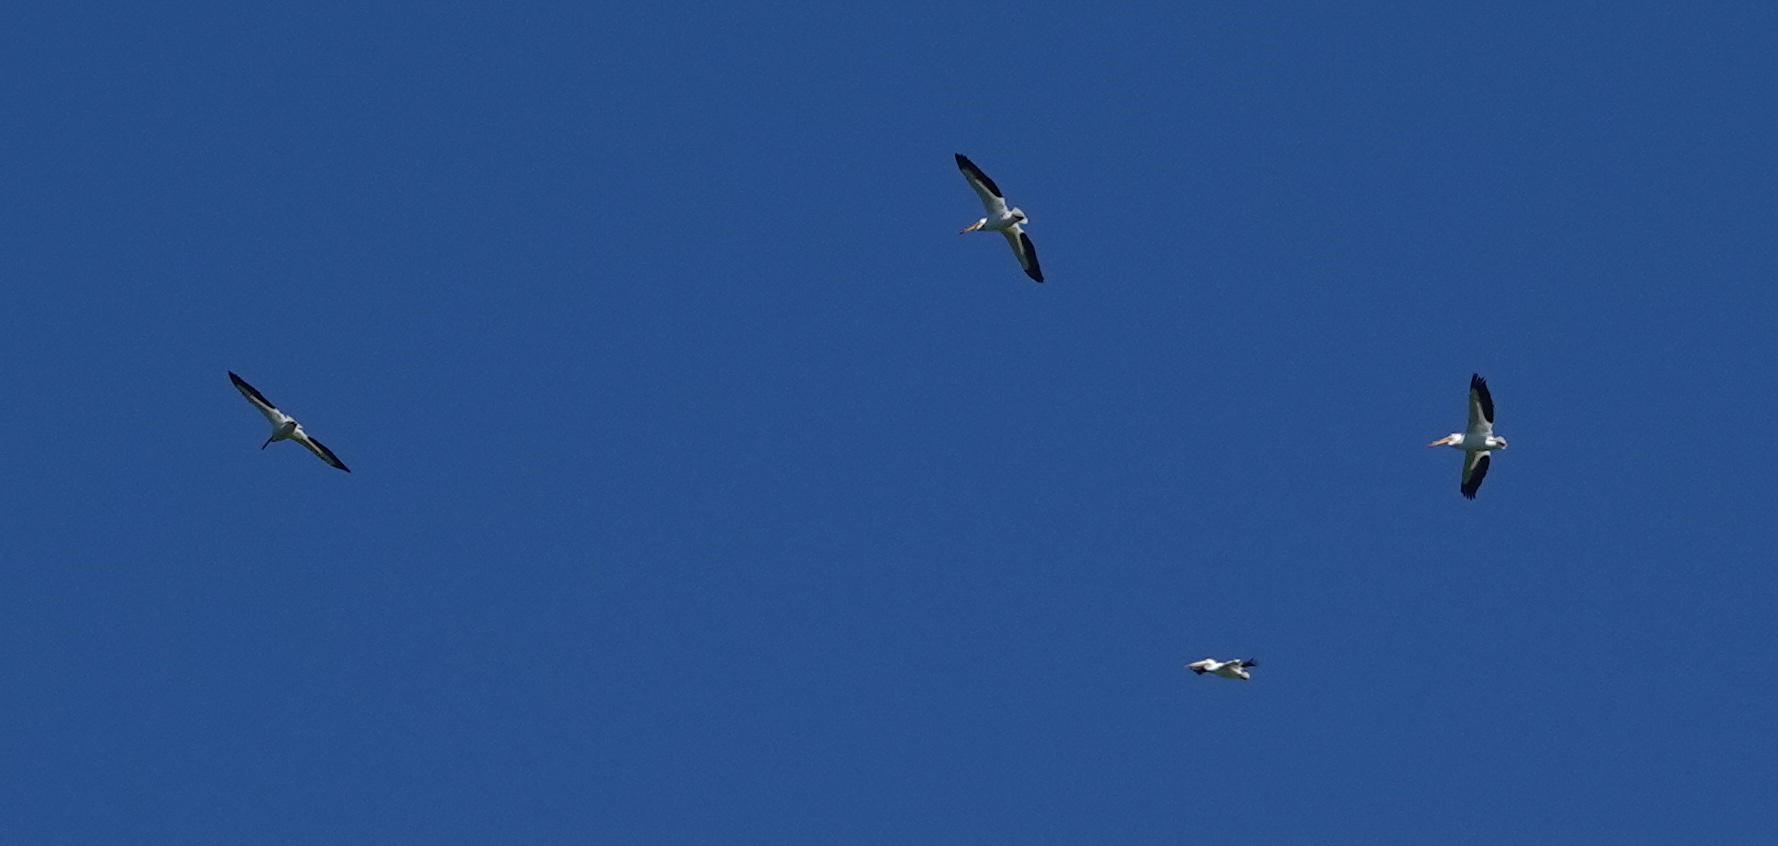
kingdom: Animalia
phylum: Chordata
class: Aves
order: Pelecaniformes
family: Pelecanidae
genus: Pelecanus
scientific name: Pelecanus erythrorhynchos
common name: American white pelican
